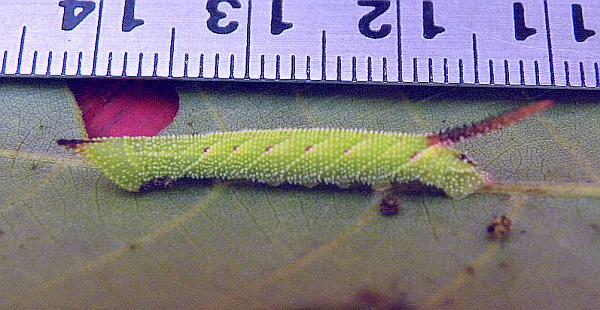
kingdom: Animalia
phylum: Arthropoda
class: Insecta
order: Lepidoptera
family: Sphingidae
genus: Amorpha
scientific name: Amorpha juglandis
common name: Walnut sphinx
